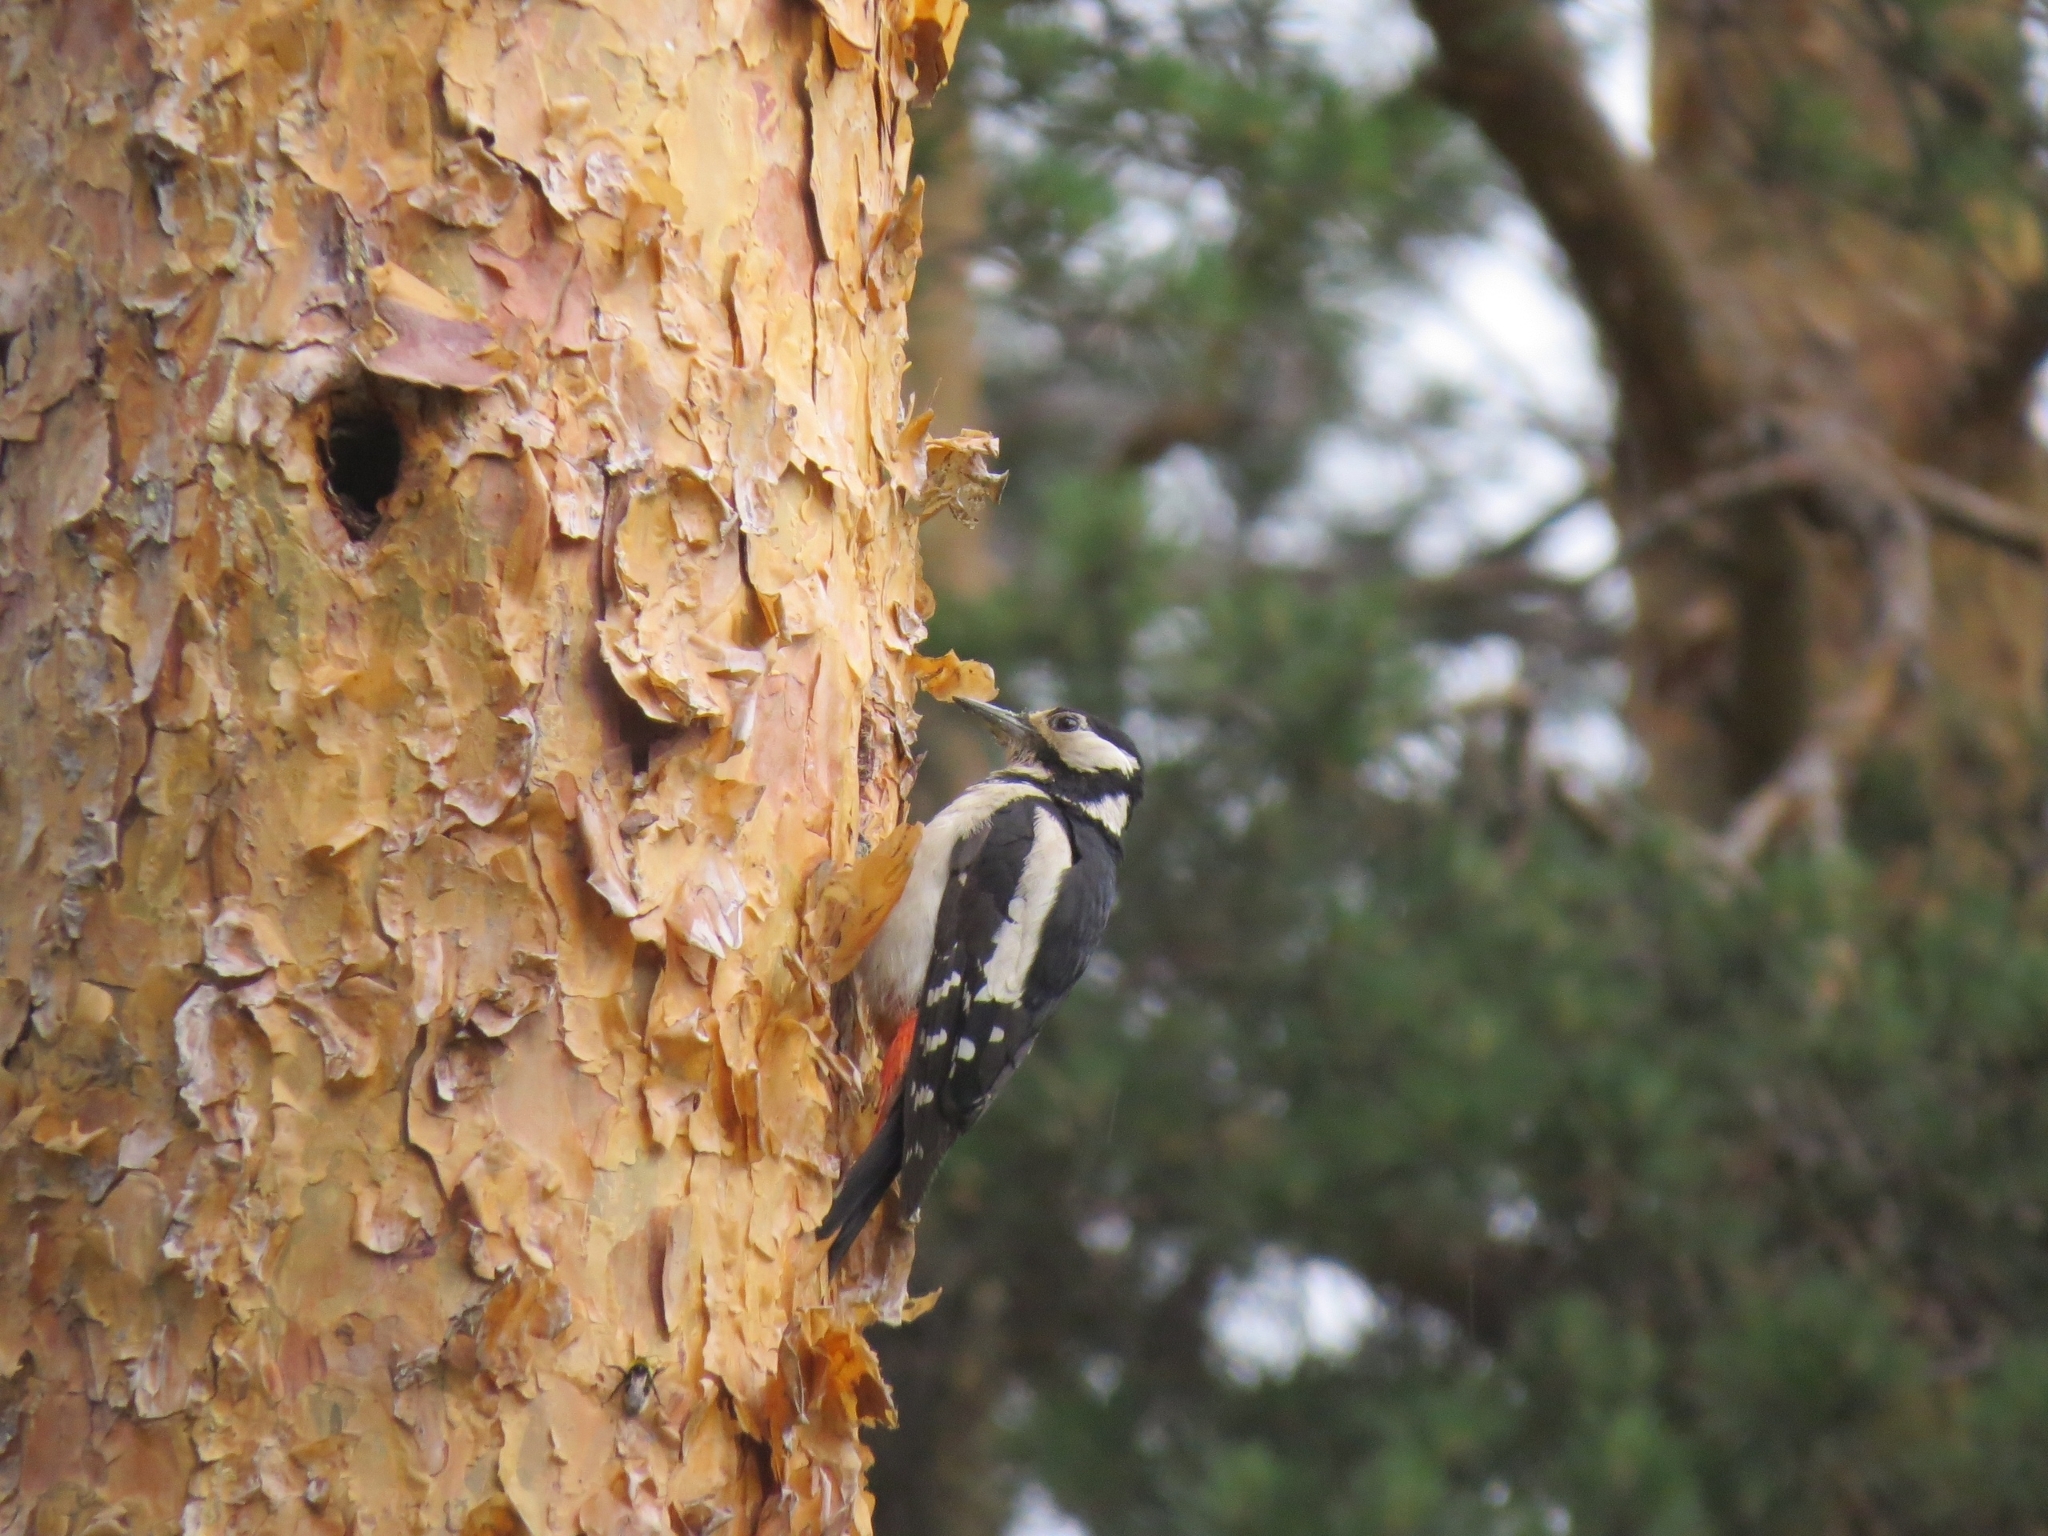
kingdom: Animalia
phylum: Chordata
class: Aves
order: Piciformes
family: Picidae
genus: Dendrocopos
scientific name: Dendrocopos major
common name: Great spotted woodpecker
